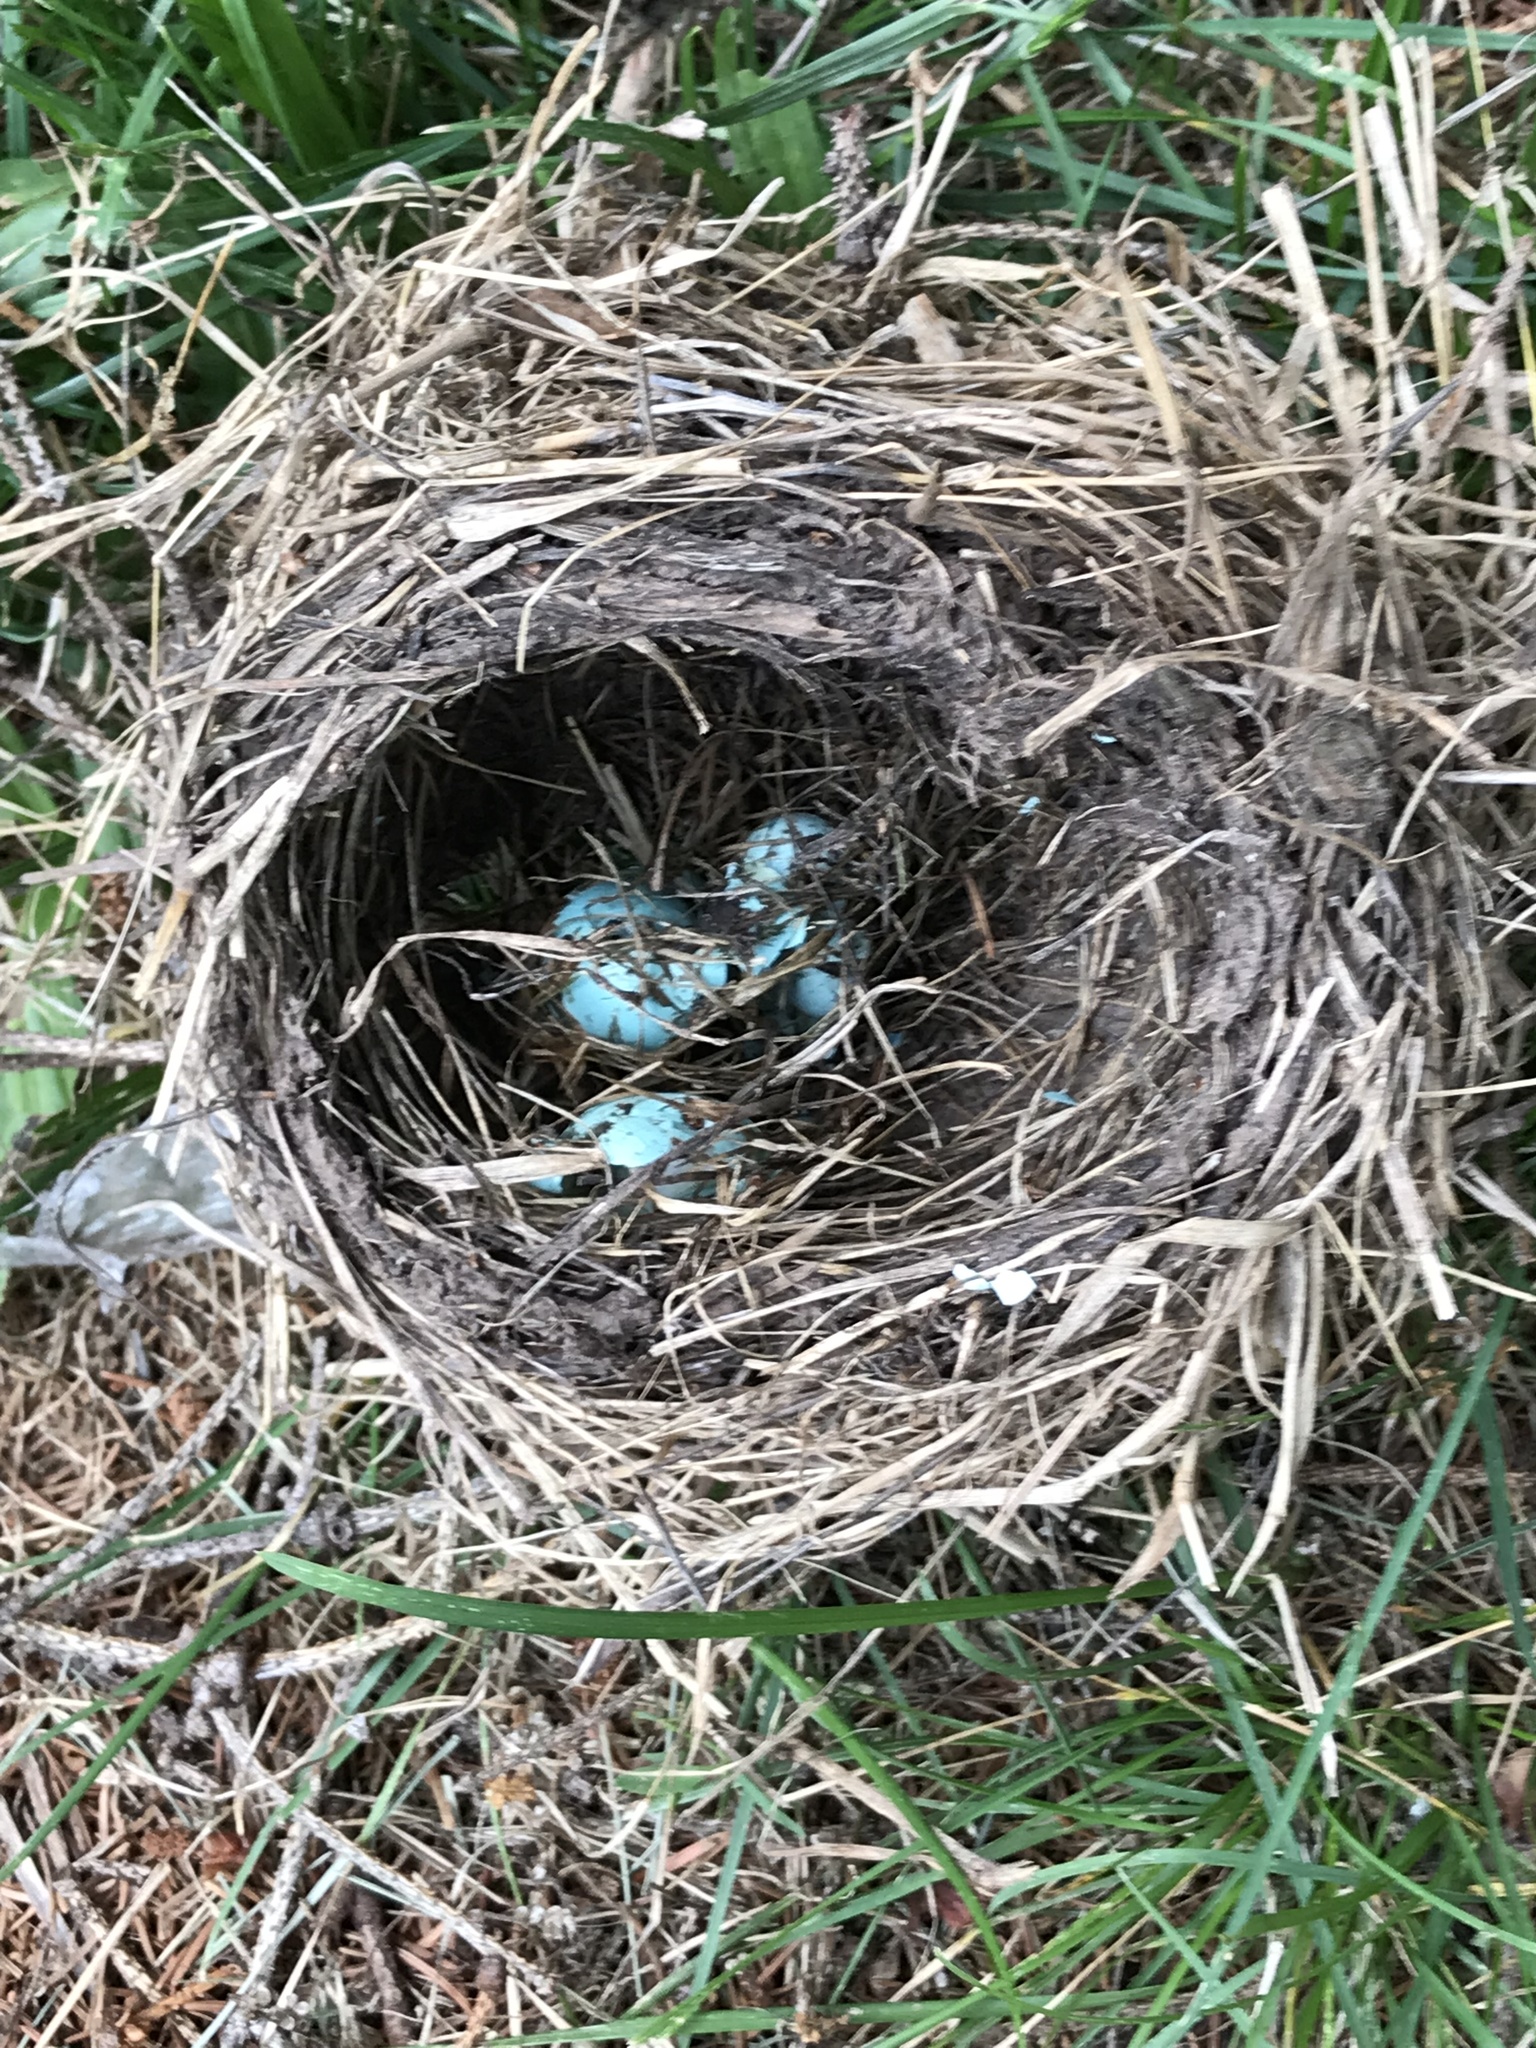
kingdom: Animalia
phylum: Chordata
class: Aves
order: Passeriformes
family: Turdidae
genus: Turdus
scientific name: Turdus migratorius
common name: American robin
